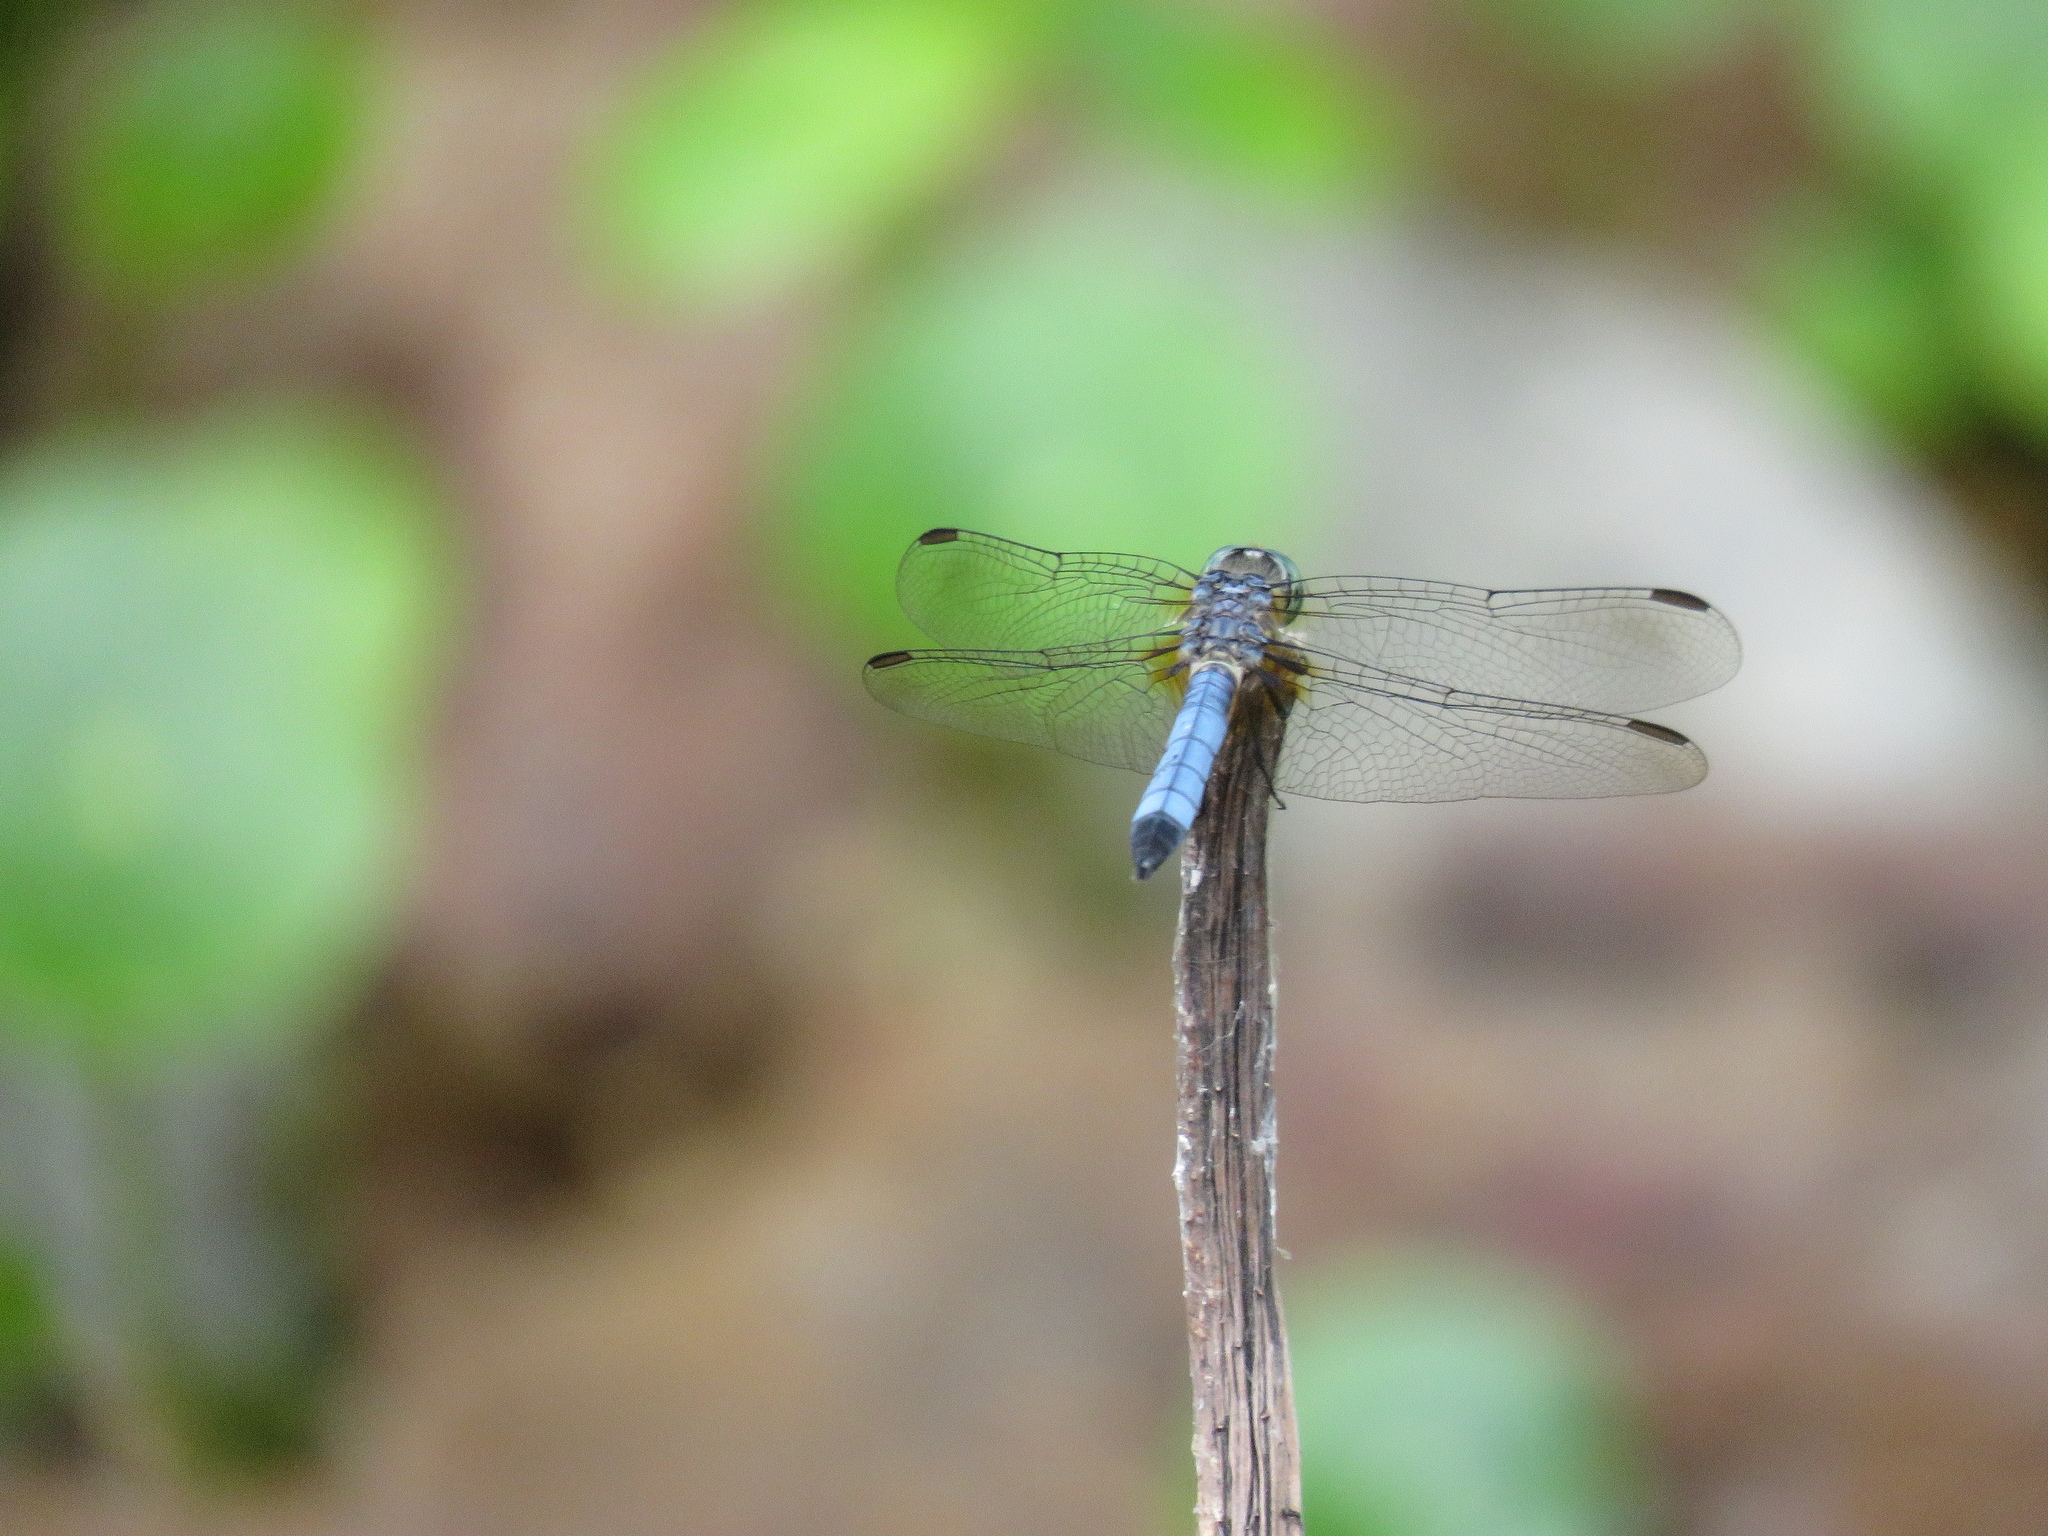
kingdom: Animalia
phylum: Arthropoda
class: Insecta
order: Odonata
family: Libellulidae
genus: Pachydiplax
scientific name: Pachydiplax longipennis
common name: Blue dasher
